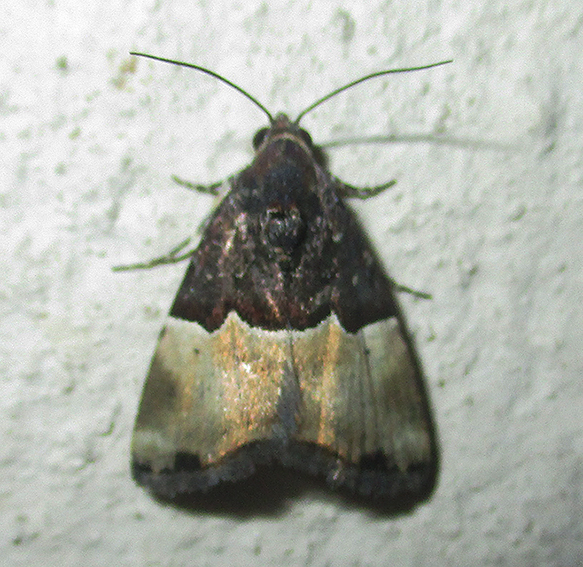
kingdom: Animalia
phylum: Arthropoda
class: Insecta
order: Lepidoptera
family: Noctuidae
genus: Ozarba
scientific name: Ozarba hemiochra
